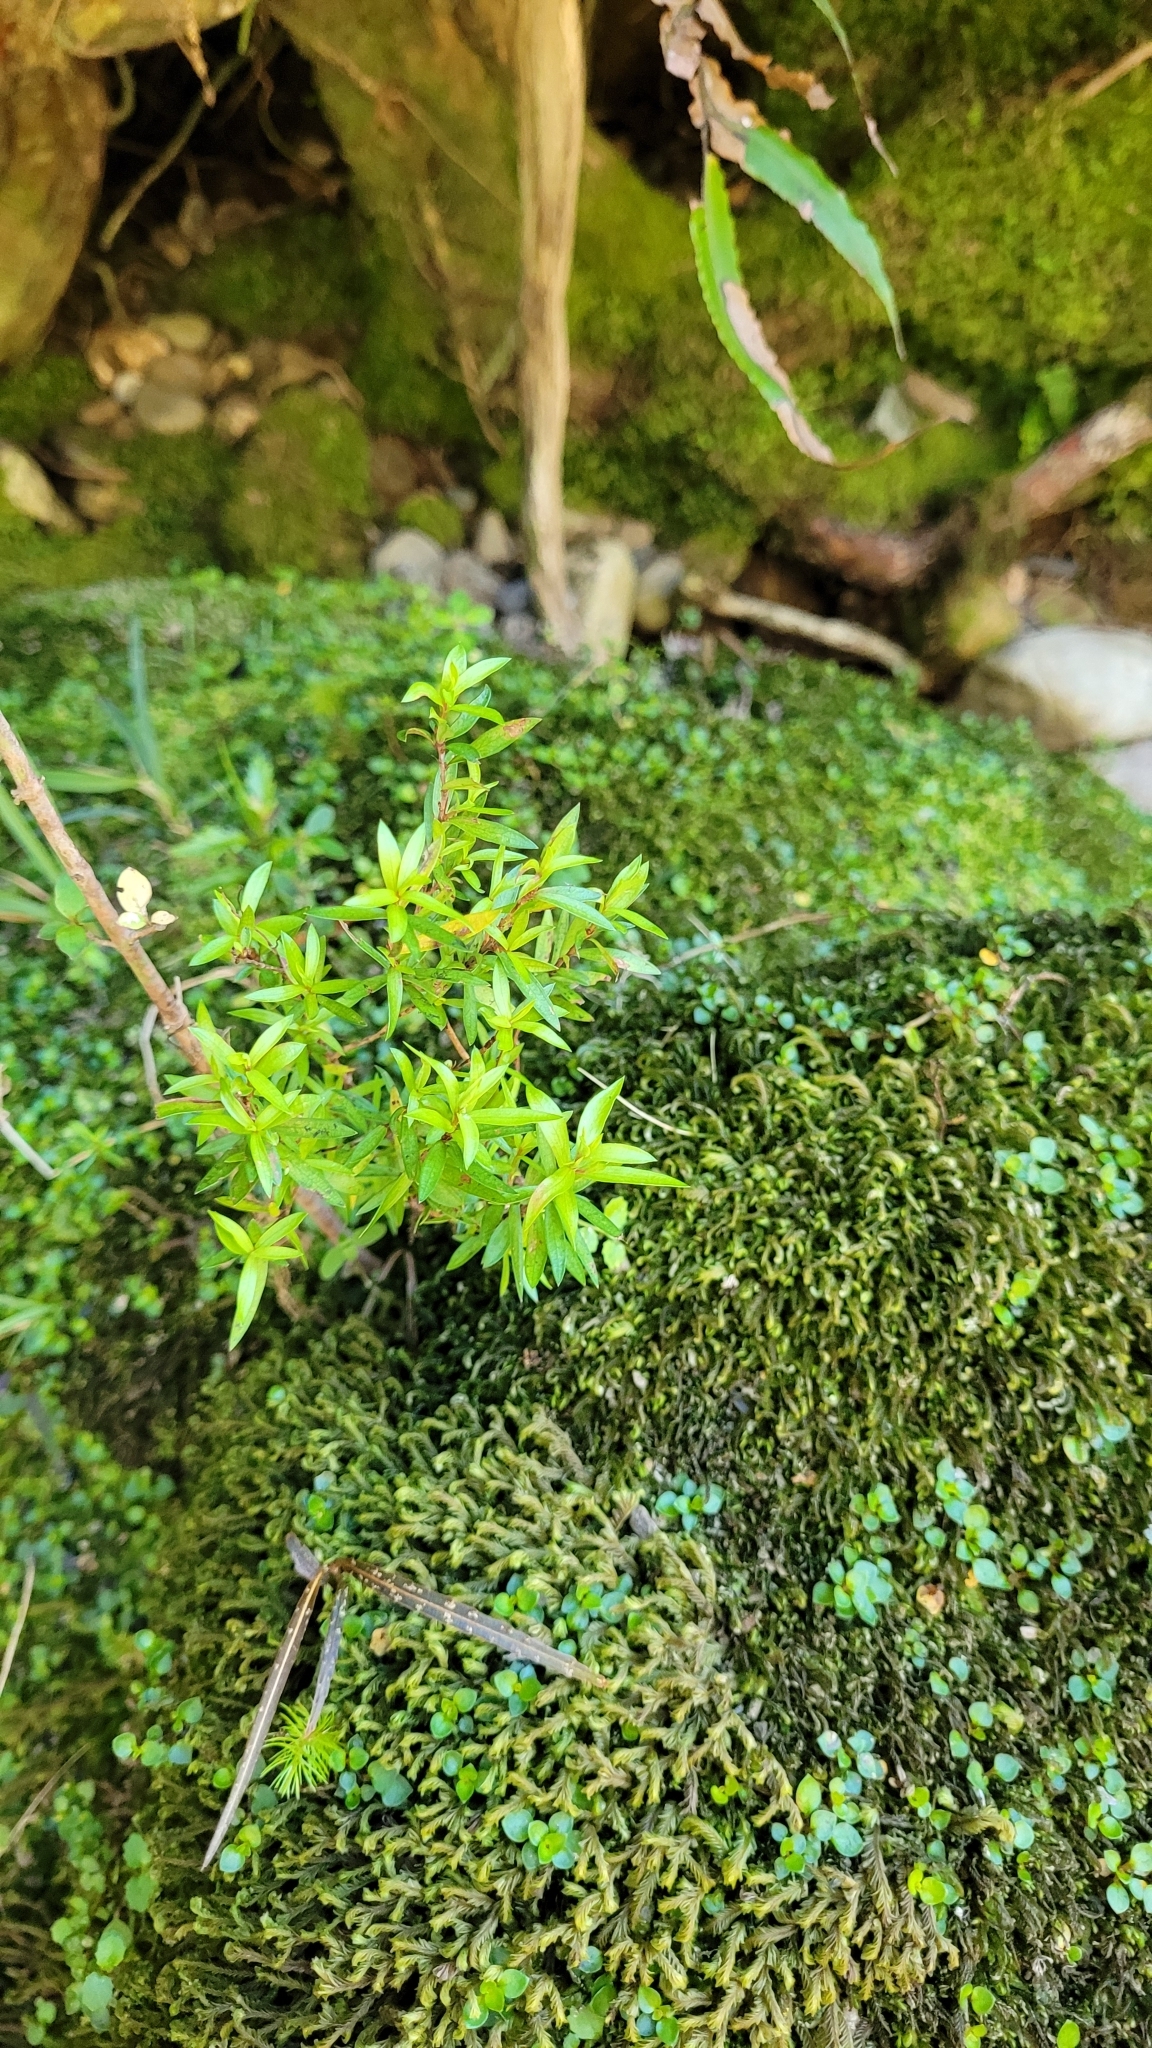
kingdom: Plantae
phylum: Tracheophyta
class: Magnoliopsida
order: Myrtales
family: Myrtaceae
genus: Leptospermum
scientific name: Leptospermum scoparium
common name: Broom tea-tree
